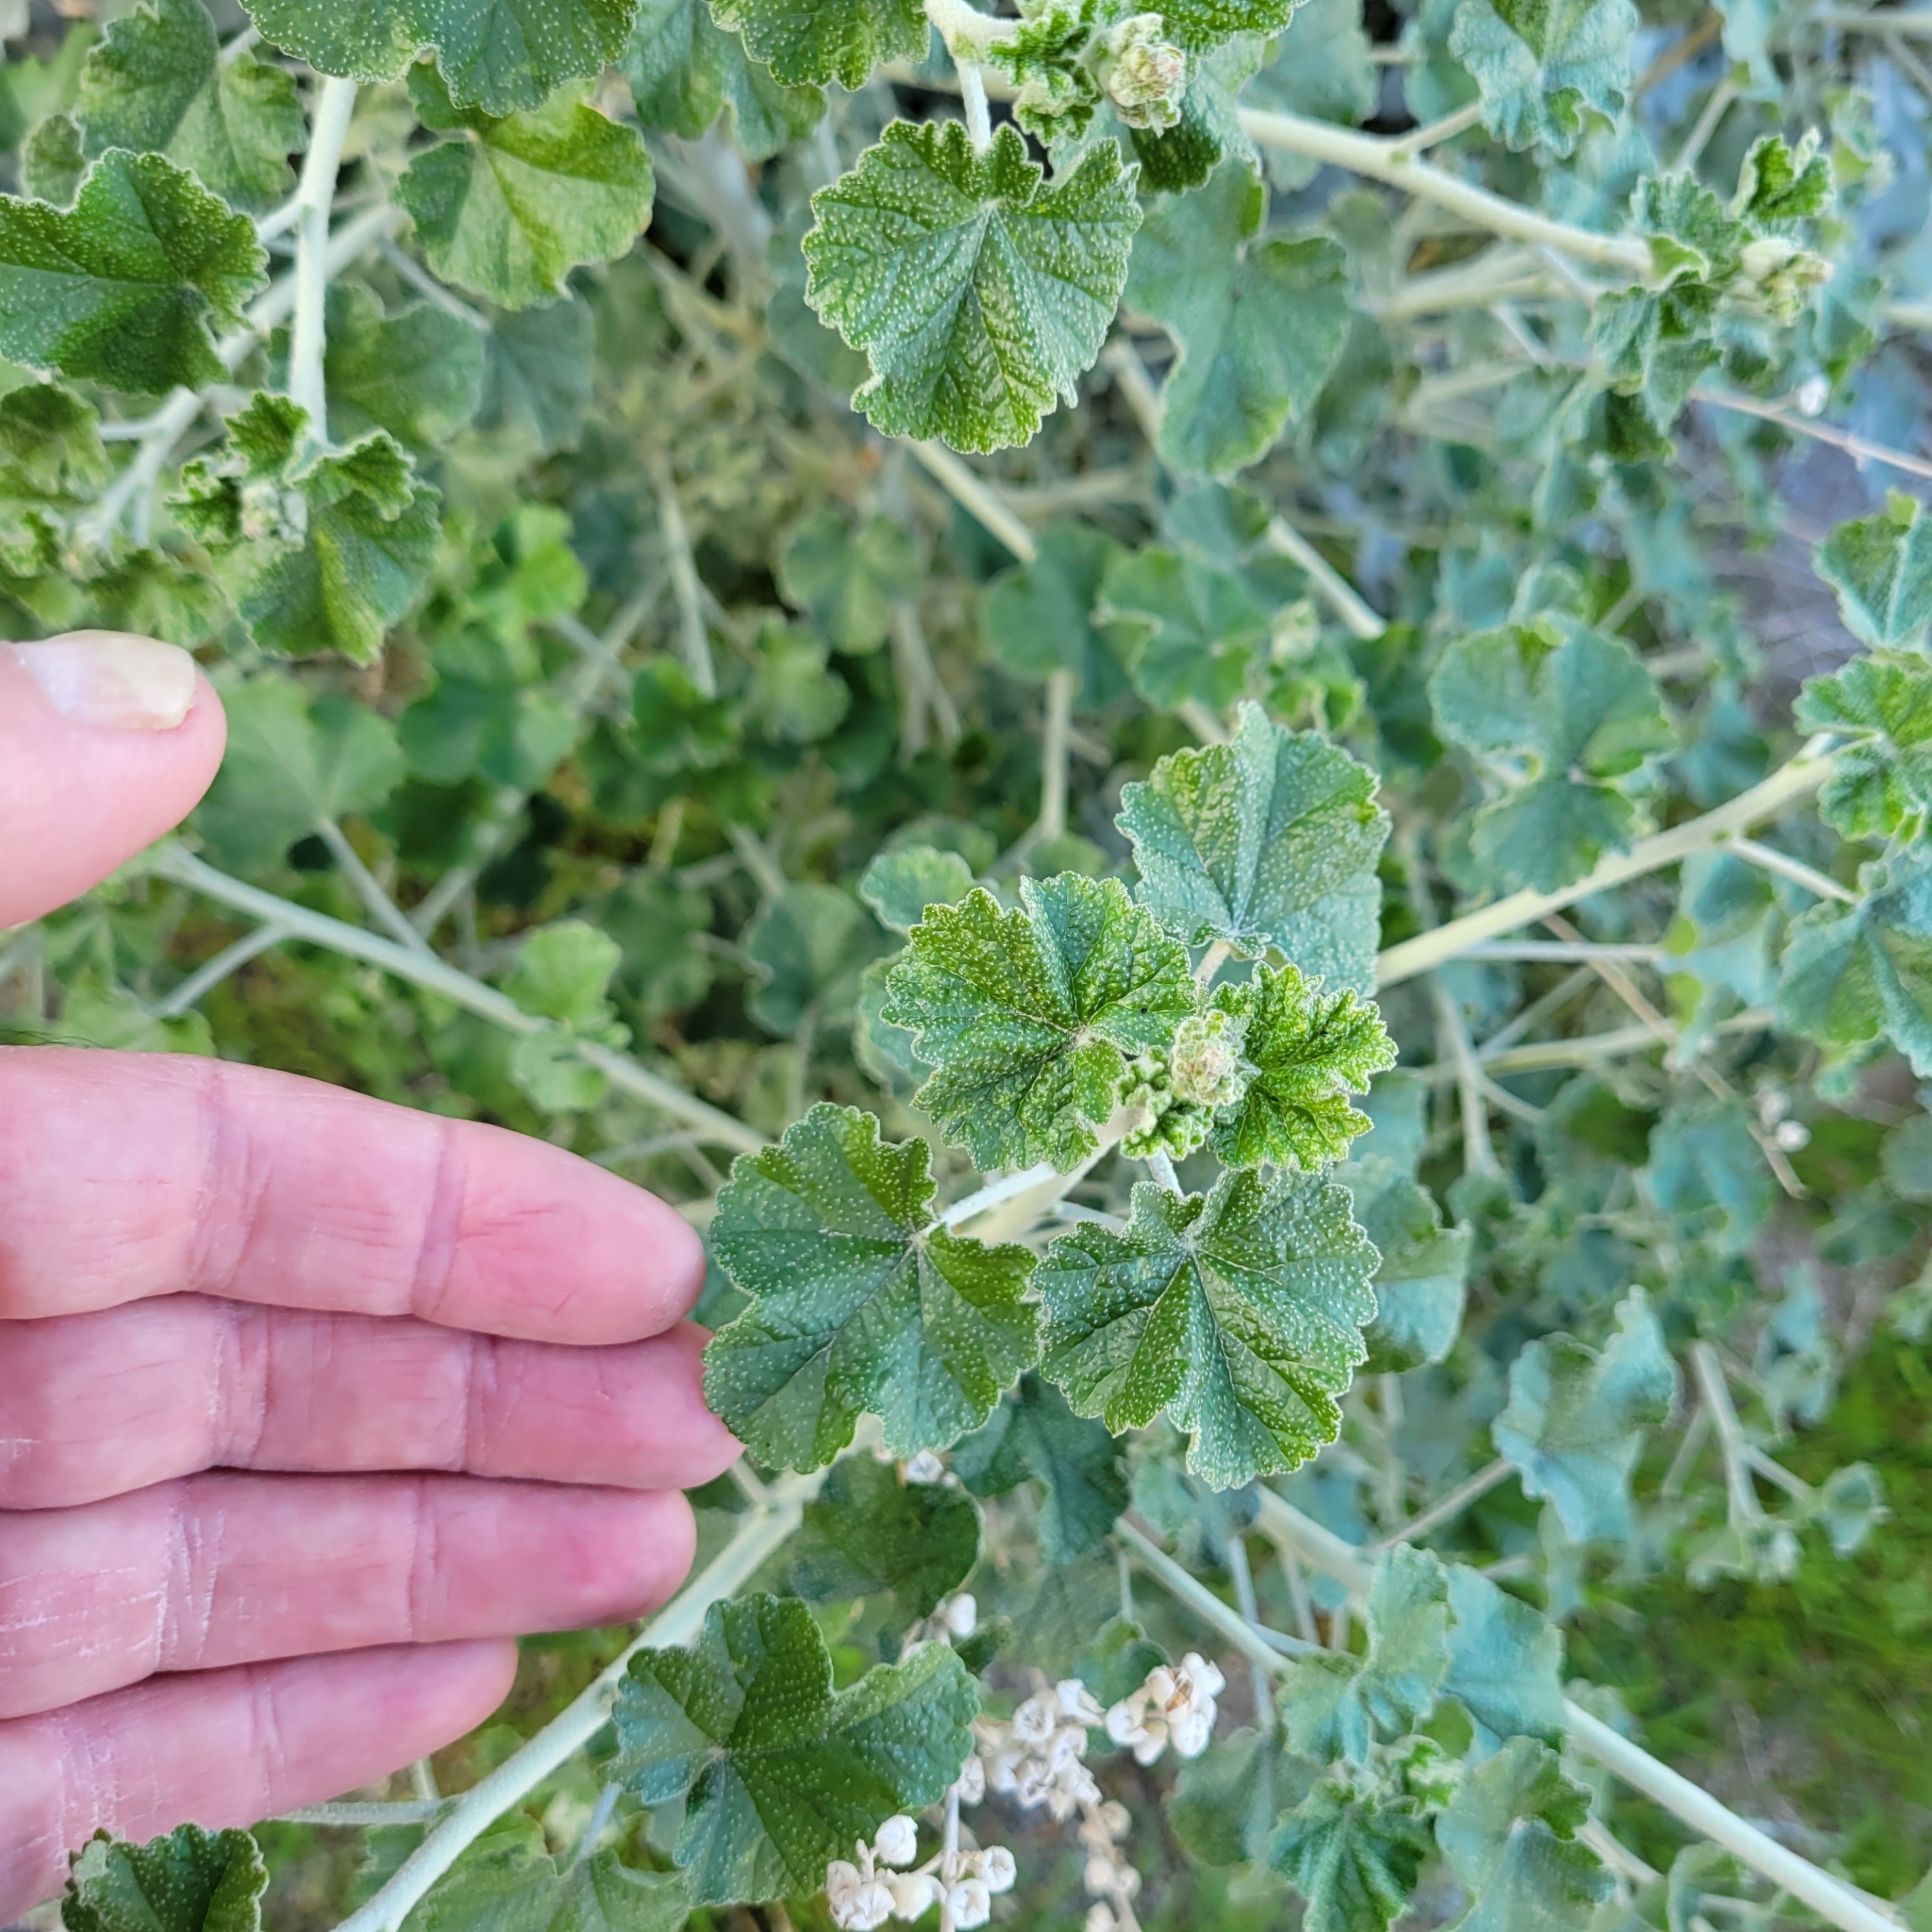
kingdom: Plantae
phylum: Tracheophyta
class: Magnoliopsida
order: Malvales
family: Malvaceae
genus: Malacothamnus
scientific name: Malacothamnus fasciculatus
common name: Sant cruz island bush-mallow
